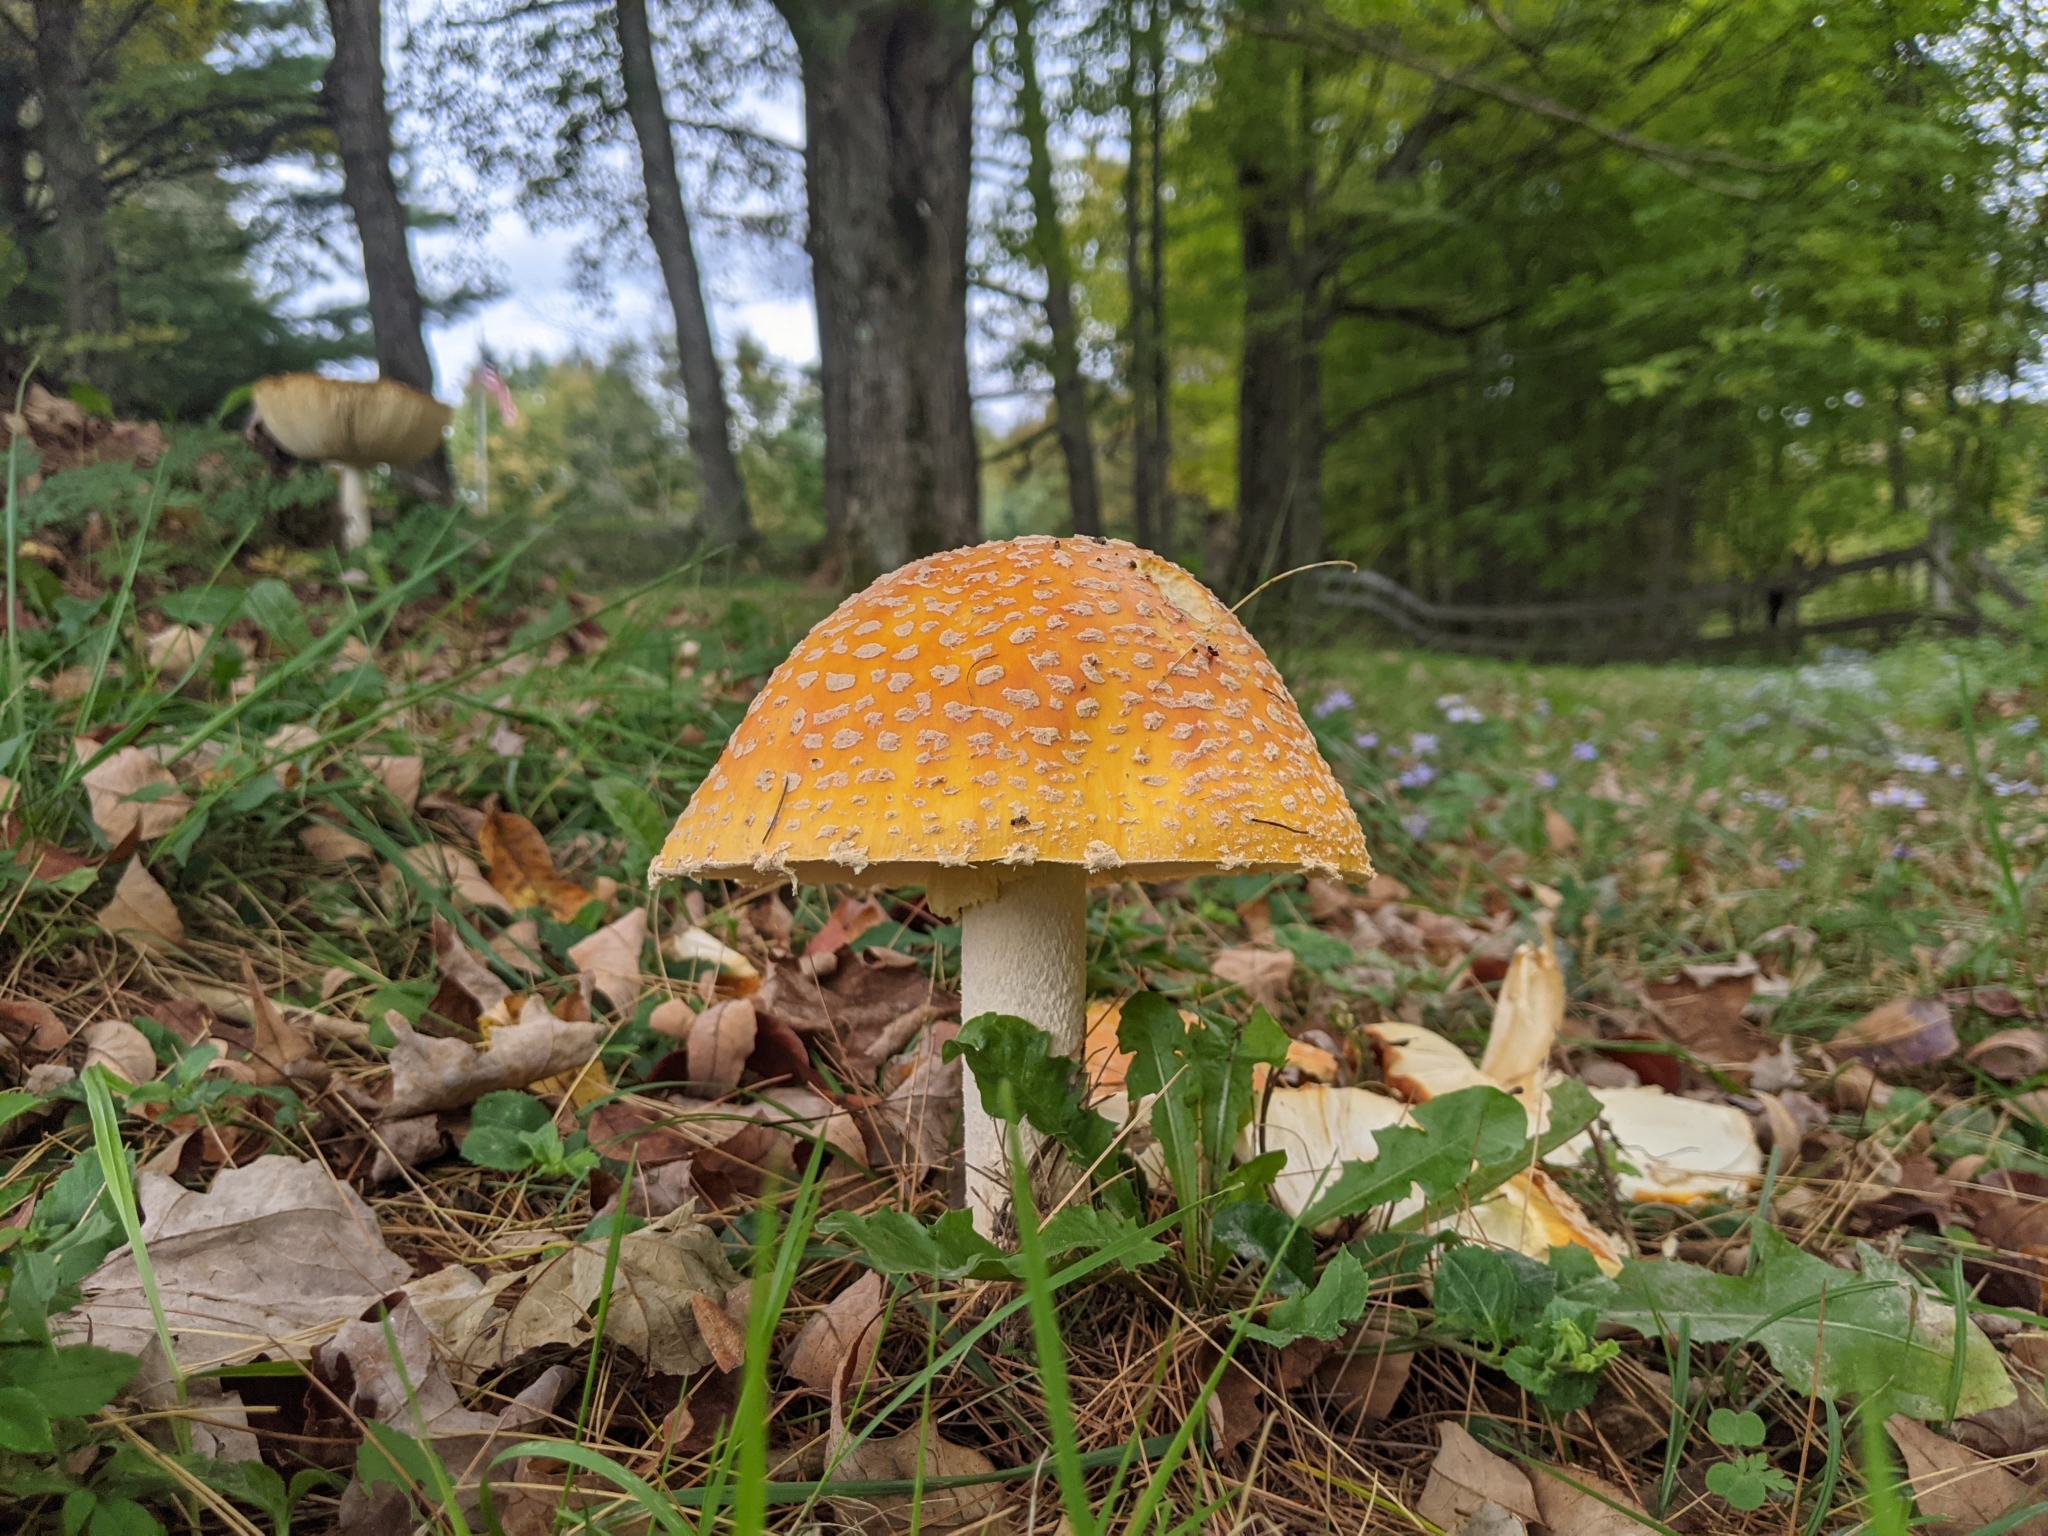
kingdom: Fungi
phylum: Basidiomycota
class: Agaricomycetes
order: Agaricales
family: Amanitaceae
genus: Amanita
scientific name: Amanita muscaria
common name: Fly agaric
